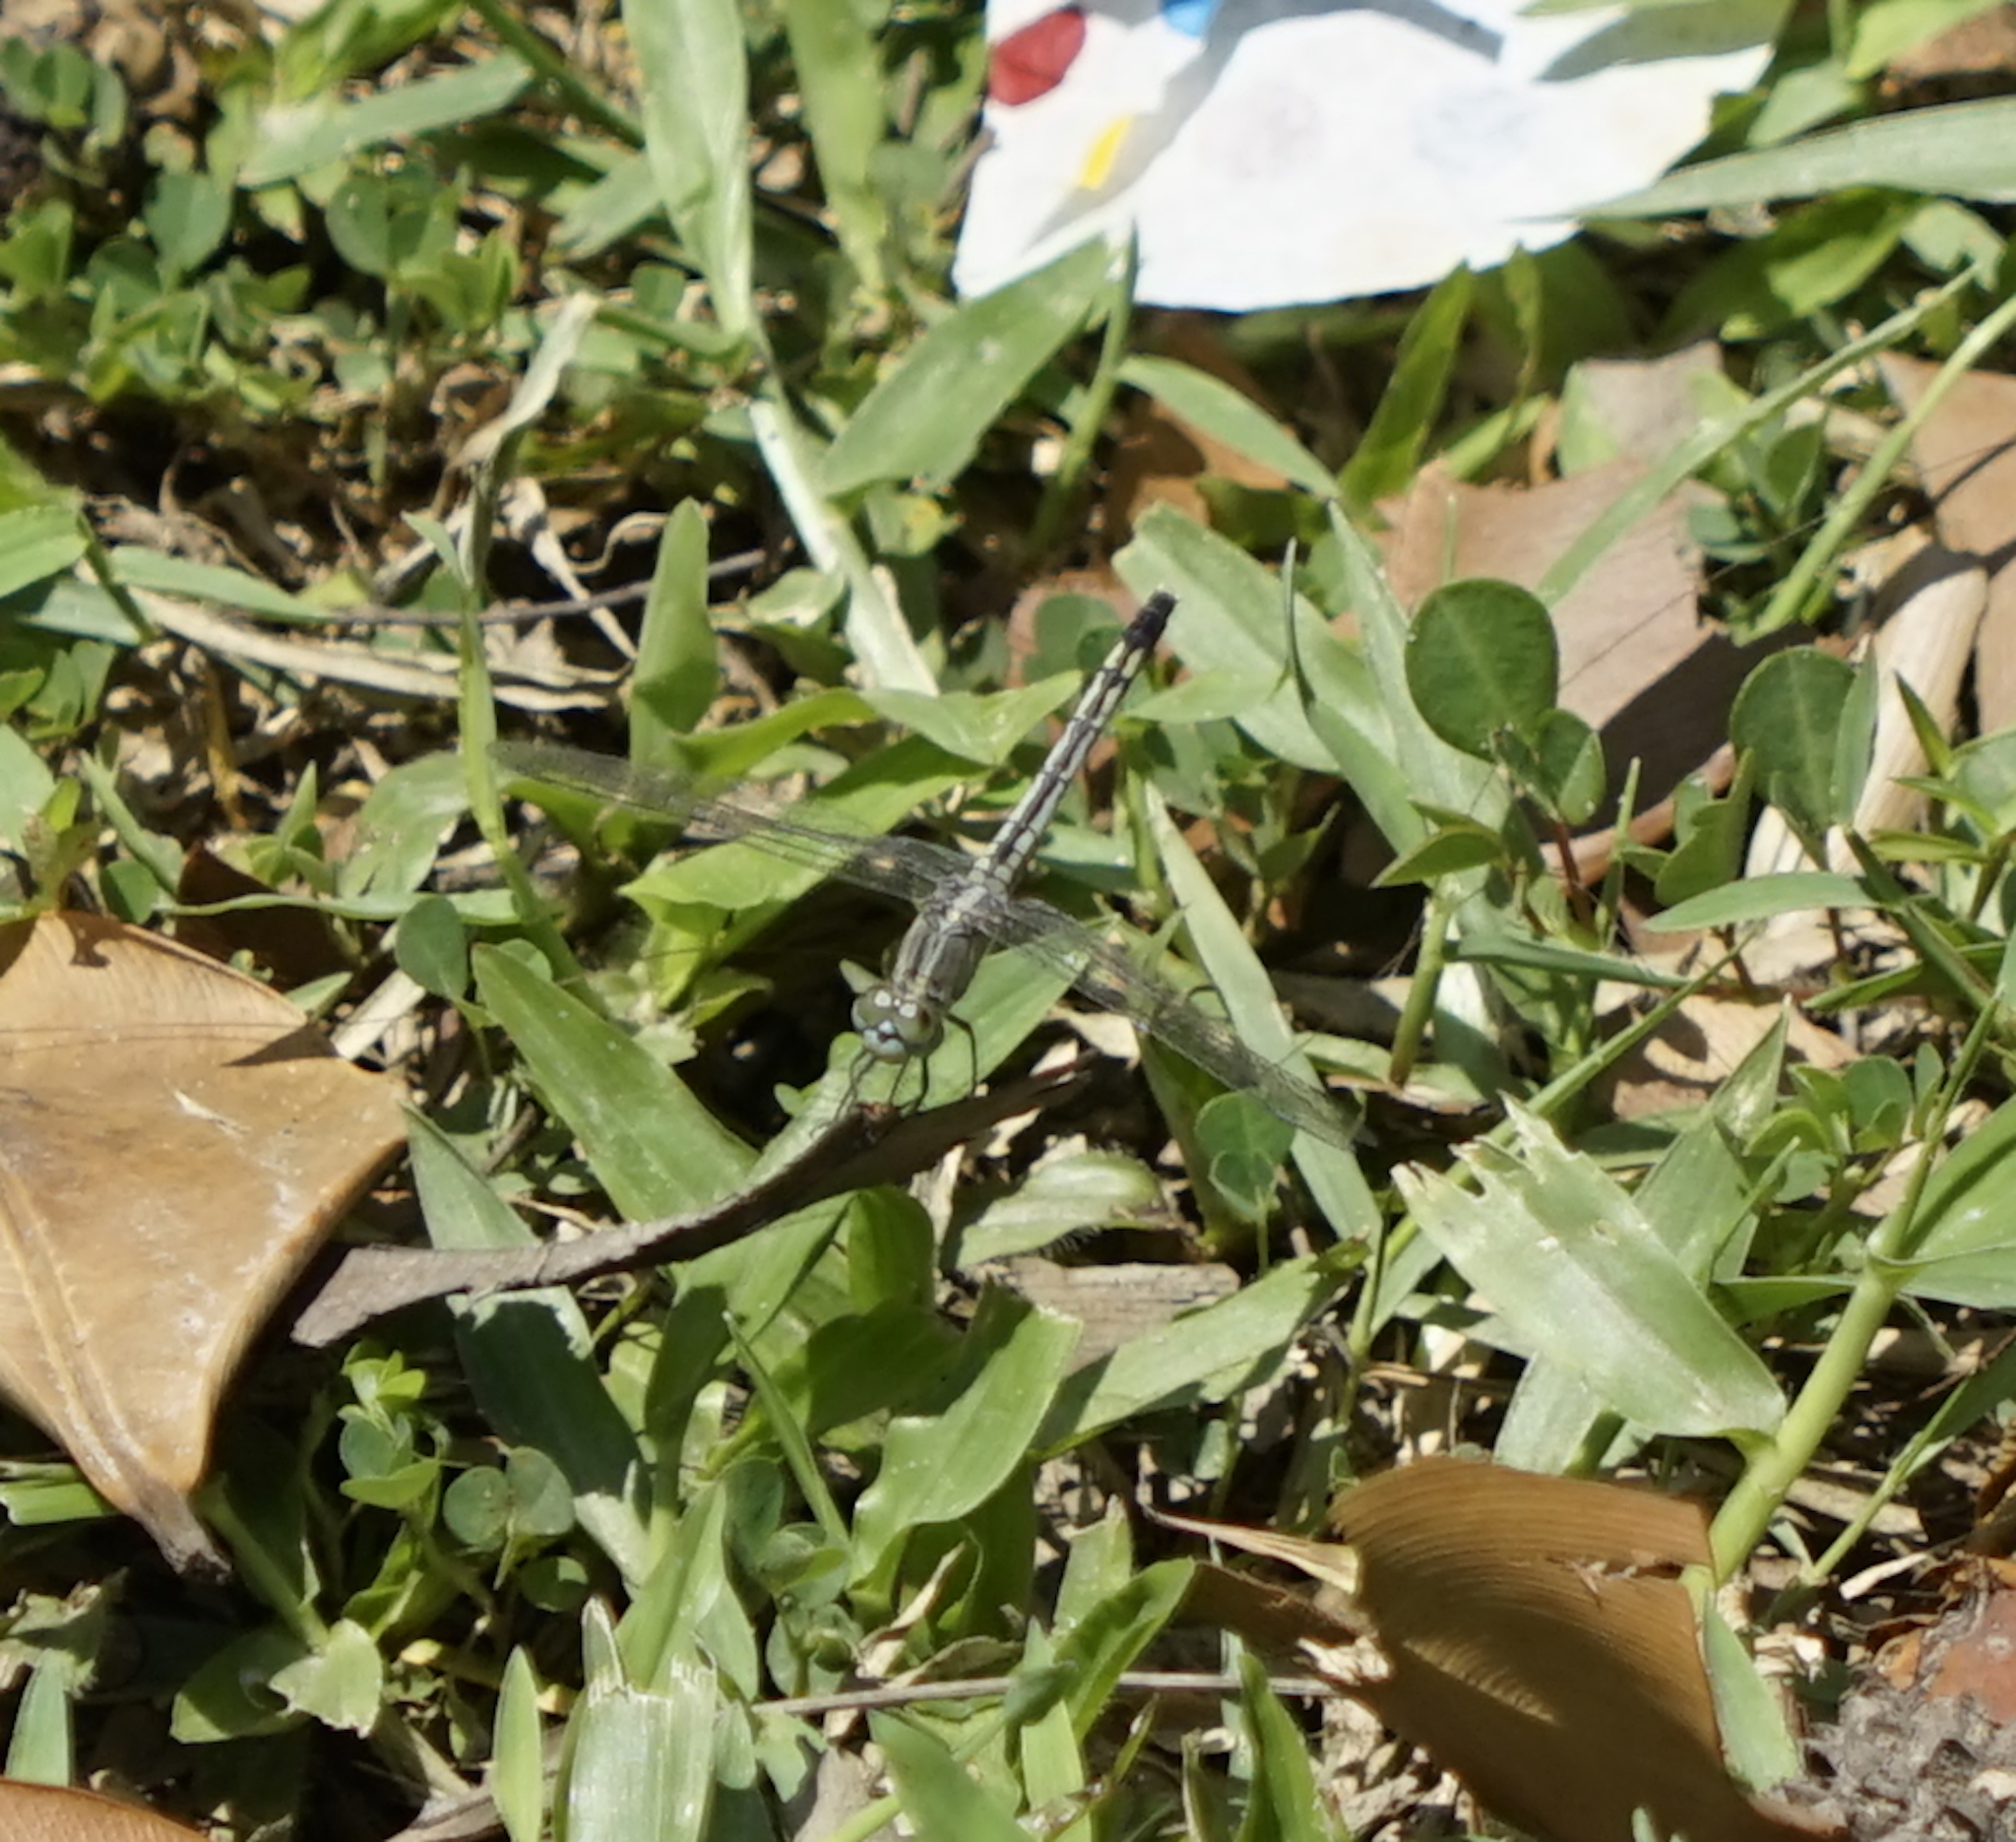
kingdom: Animalia
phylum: Arthropoda
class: Insecta
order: Odonata
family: Libellulidae
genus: Diplacodes
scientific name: Diplacodes trivialis
